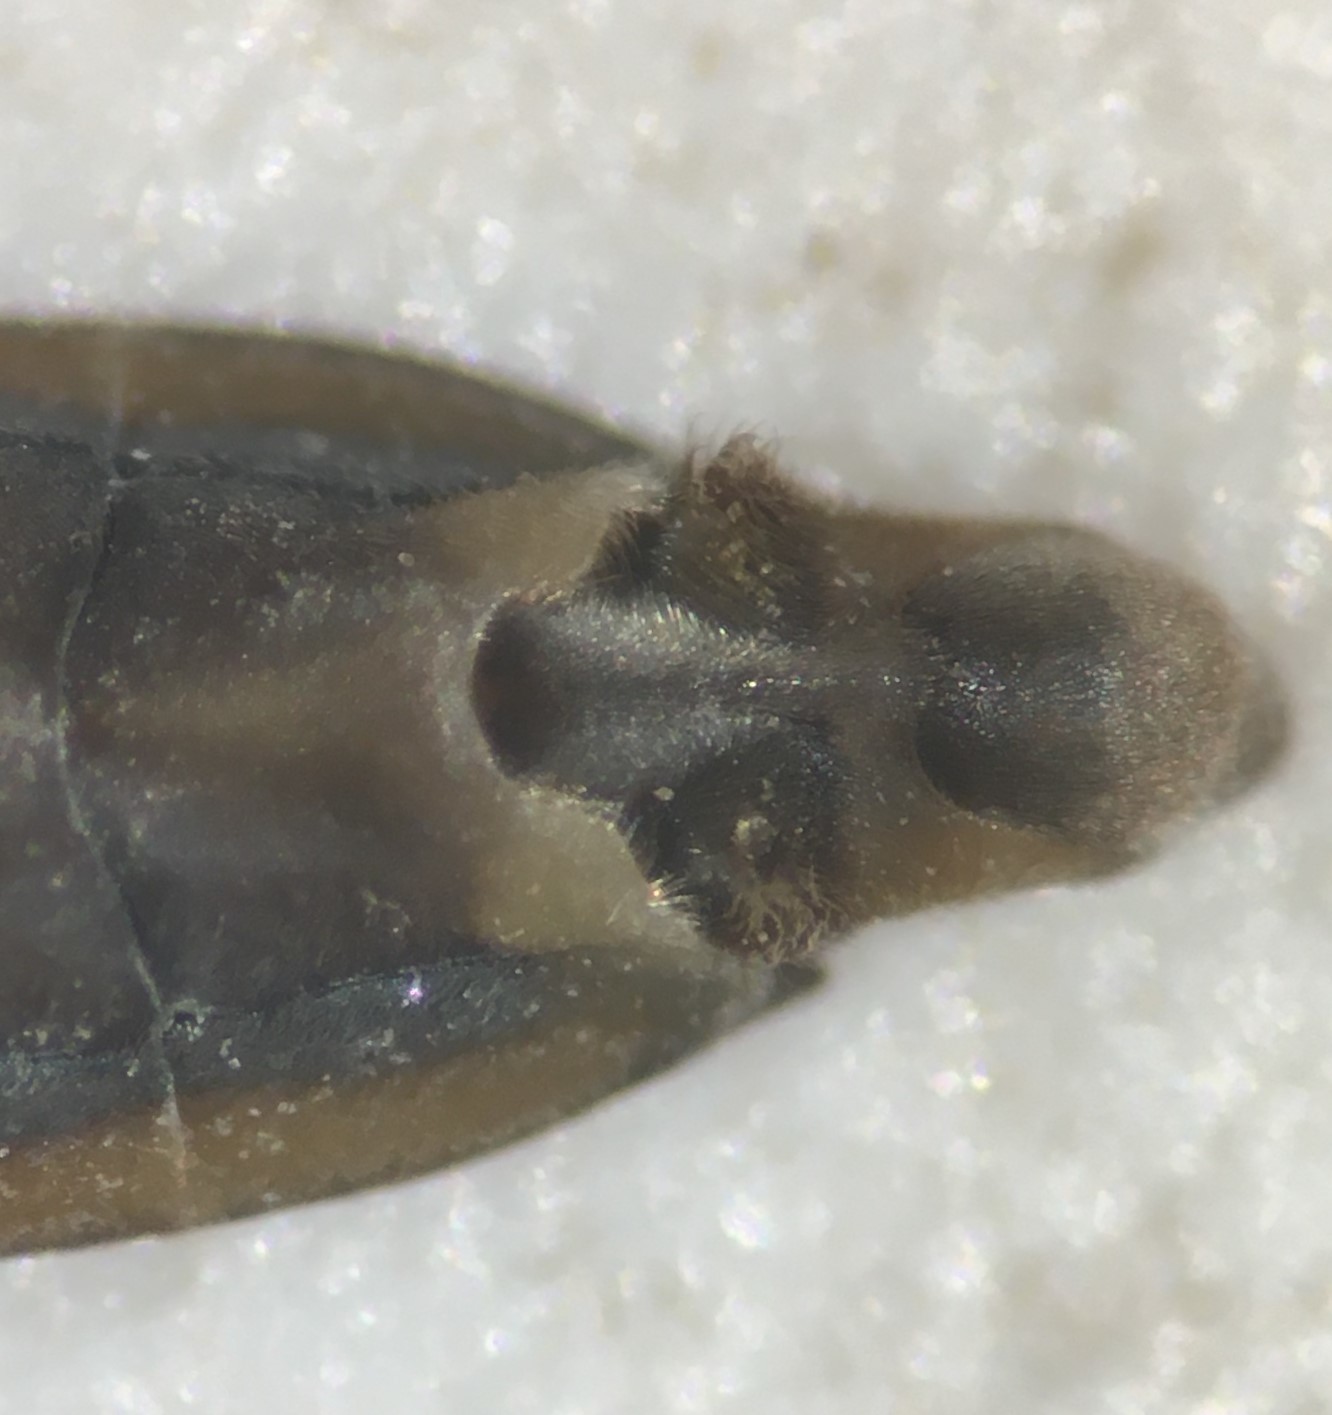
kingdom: Animalia
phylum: Arthropoda
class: Insecta
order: Hemiptera
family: Gerridae
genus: Gerris
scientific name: Gerris comatus
